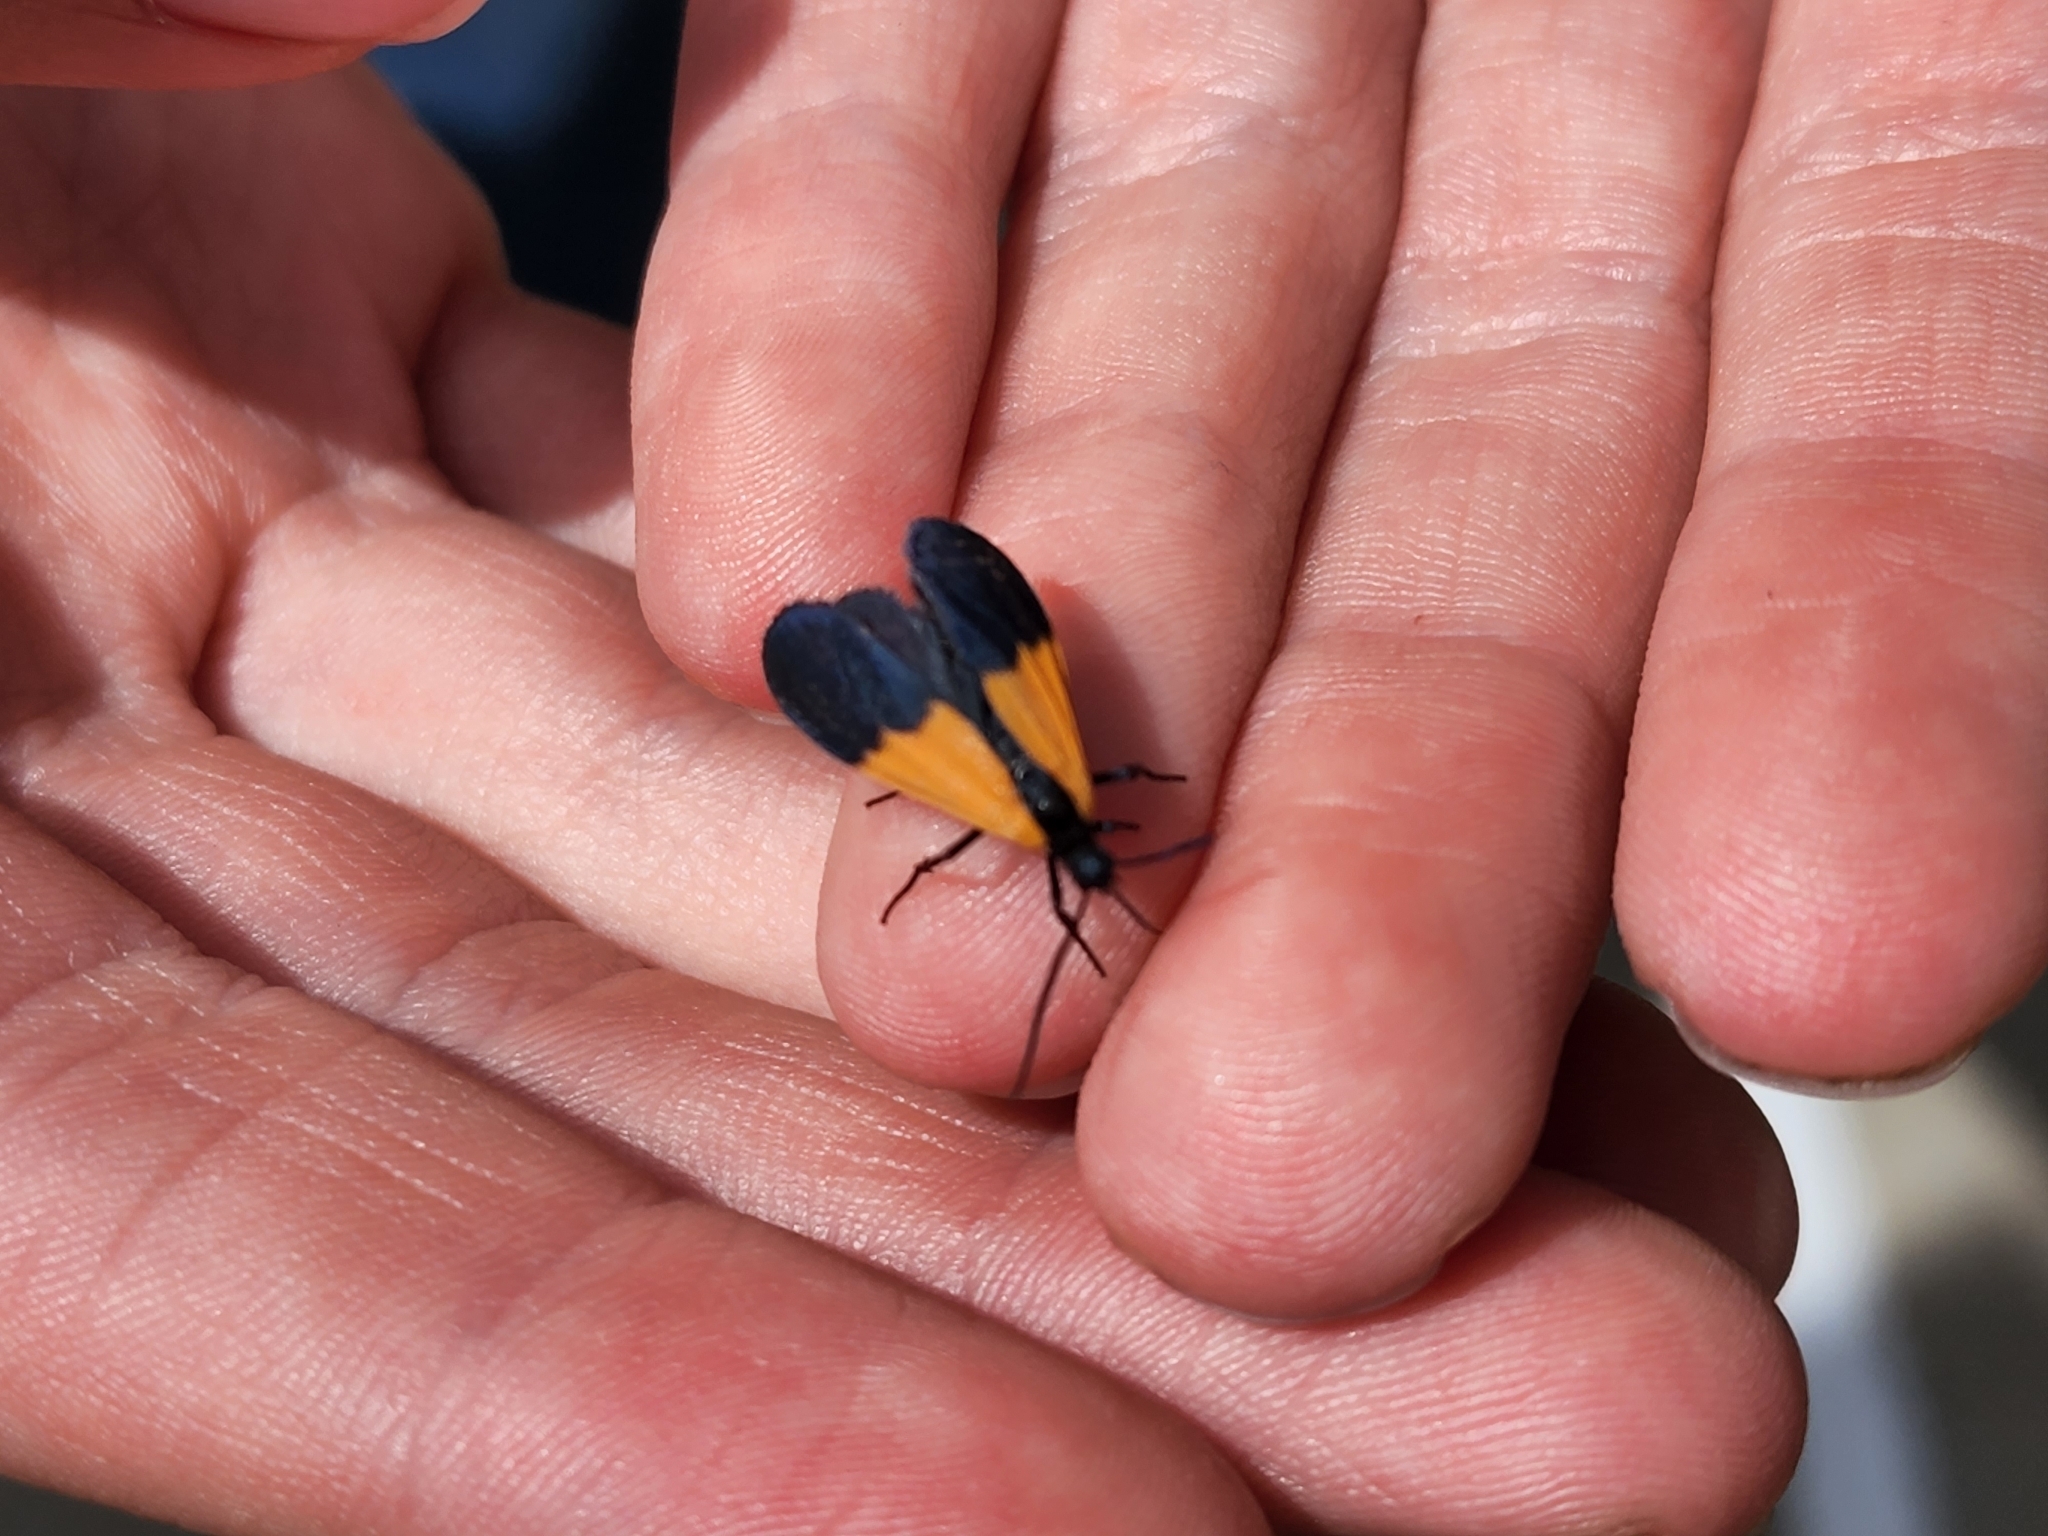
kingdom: Animalia
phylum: Arthropoda
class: Insecta
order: Lepidoptera
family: Erebidae
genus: Lycomorpha
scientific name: Lycomorpha pholus
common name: Black-and-yellow lichen moth
